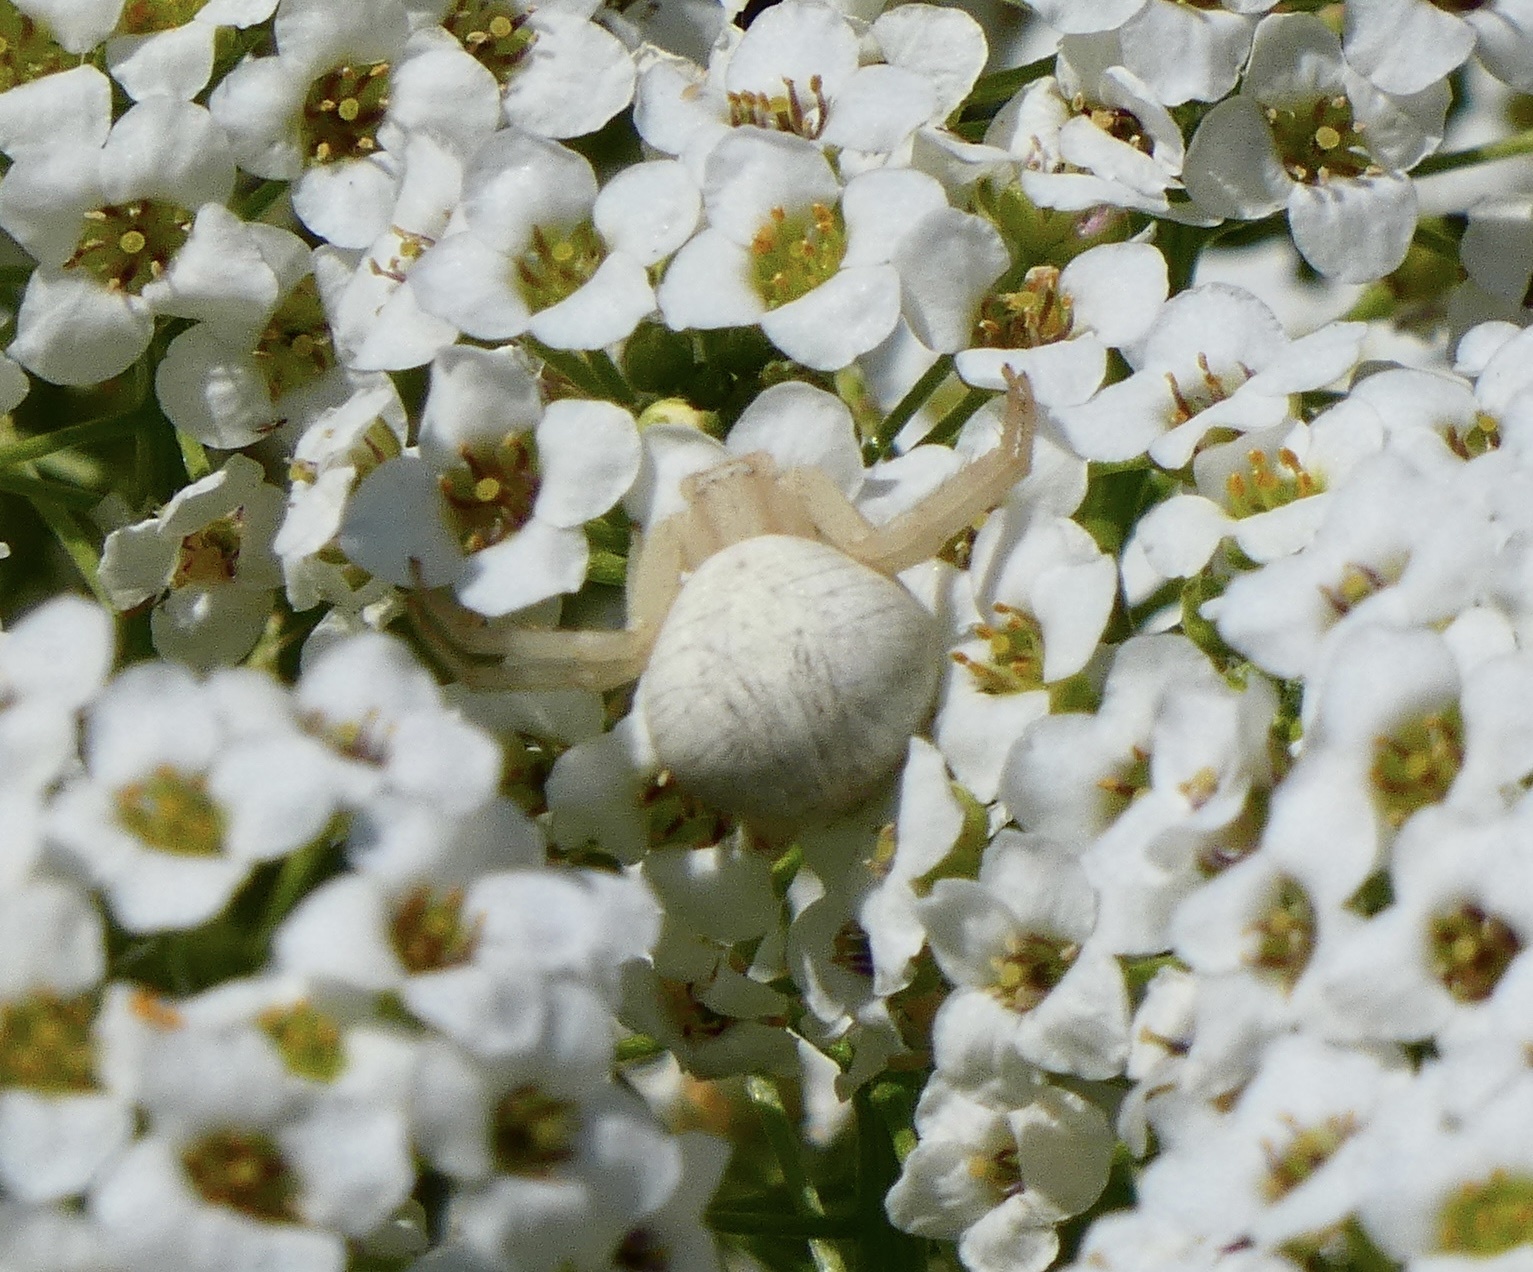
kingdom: Animalia
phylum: Arthropoda
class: Arachnida
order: Araneae
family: Thomisidae
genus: Misumena
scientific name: Misumena vatia
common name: Goldenrod crab spider
